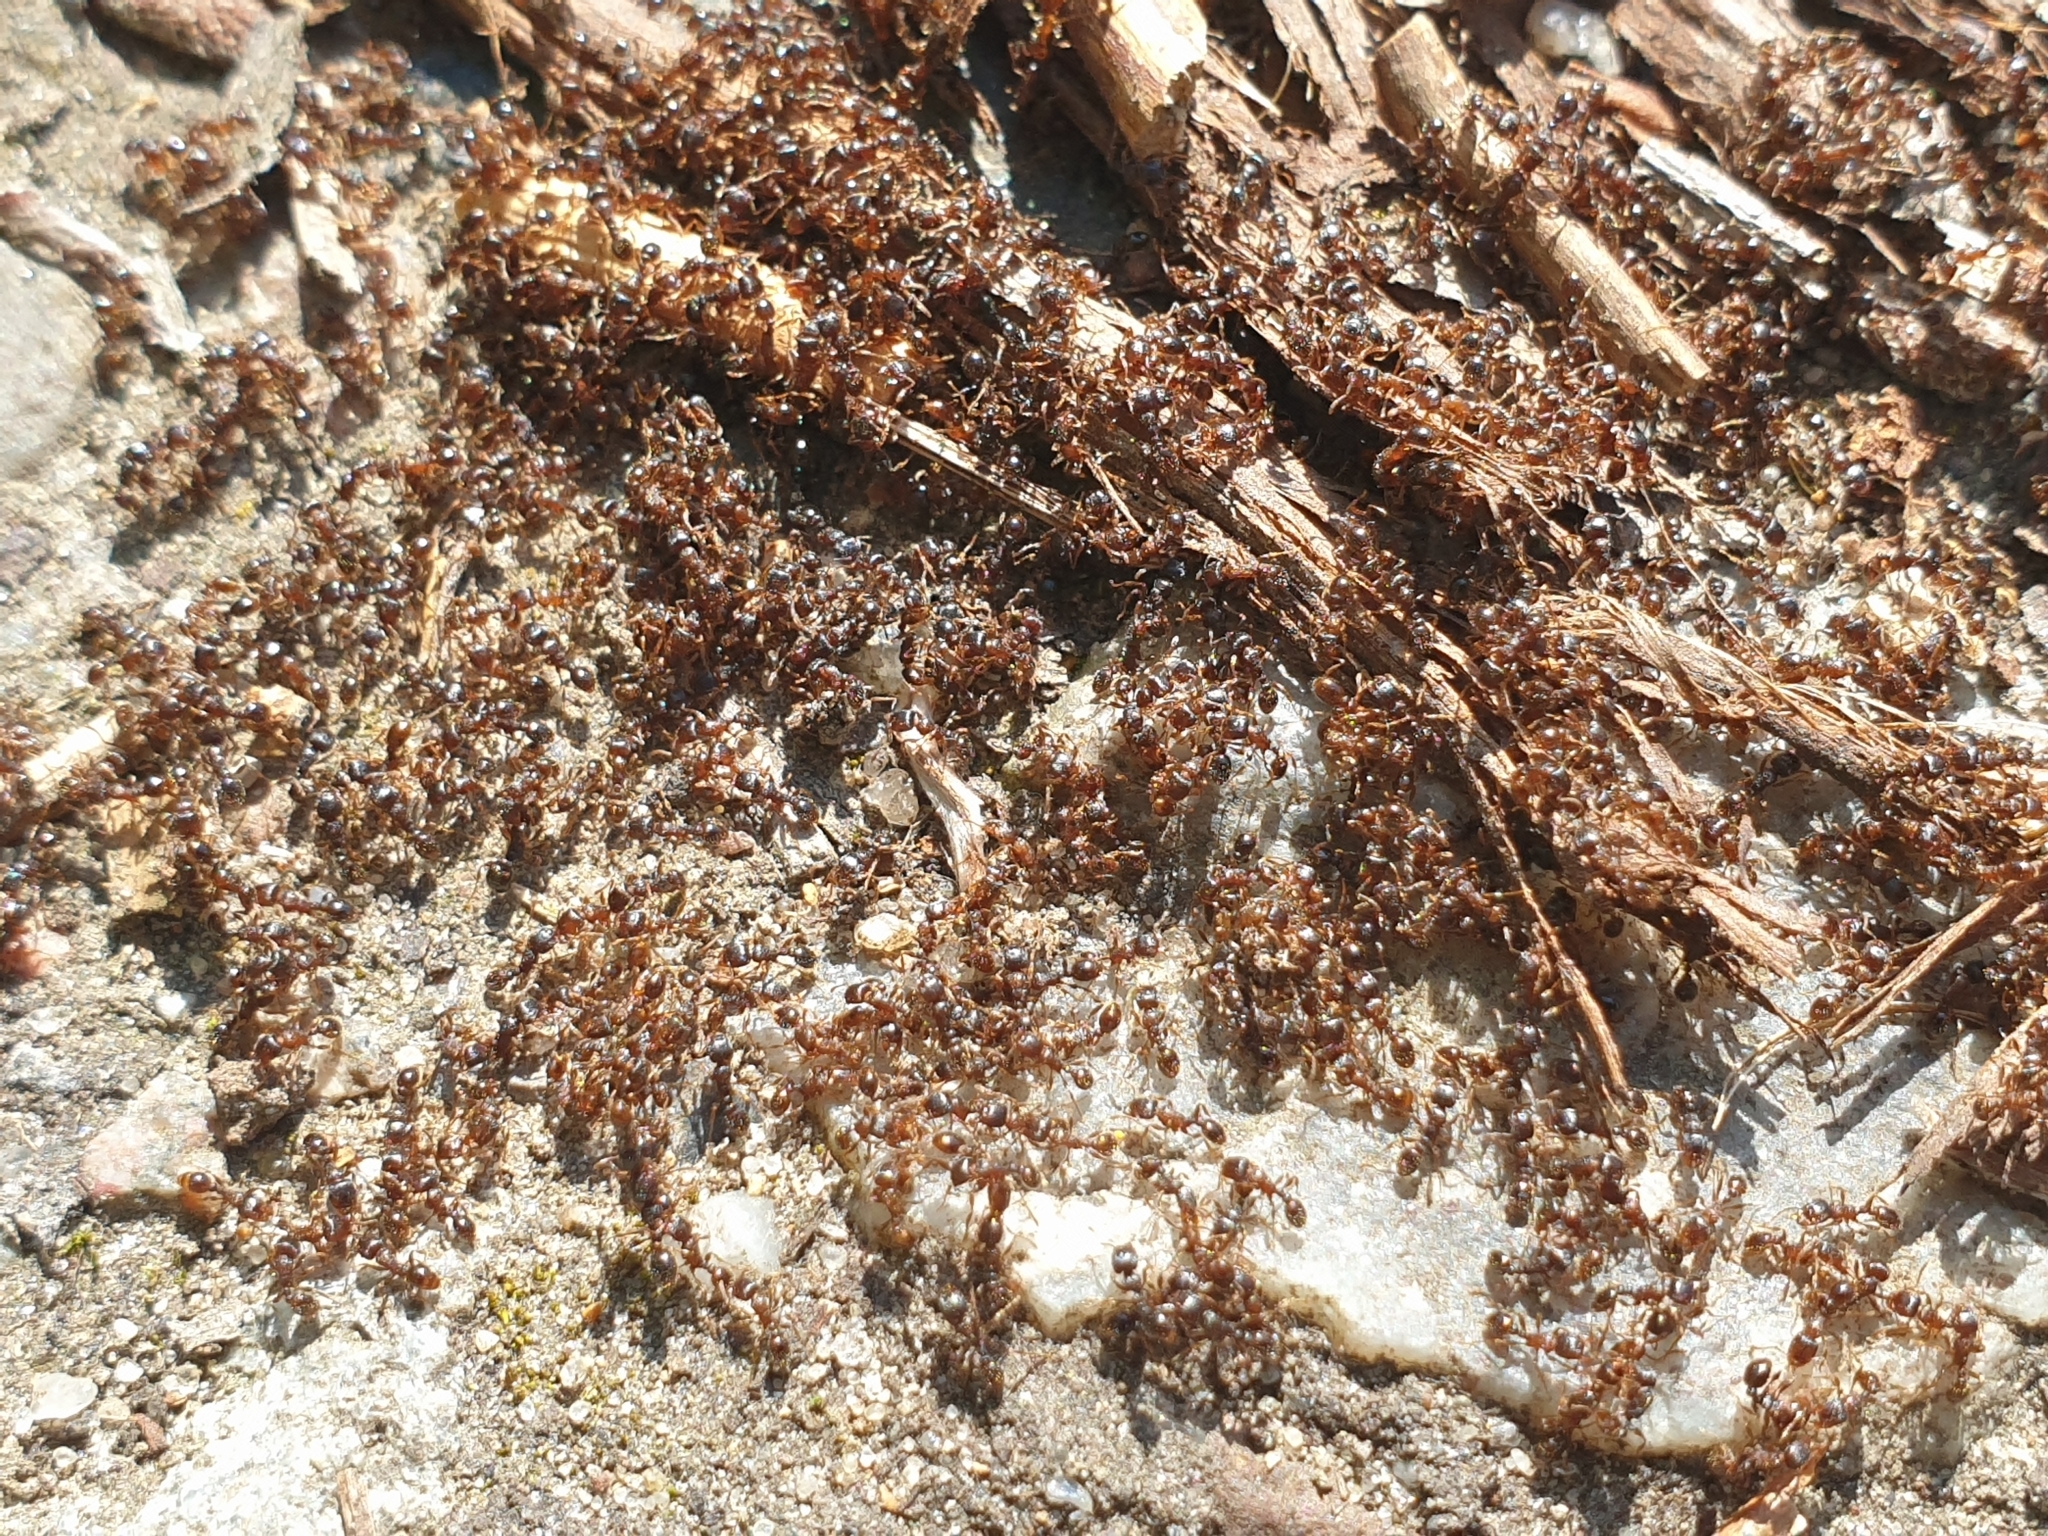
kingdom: Animalia
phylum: Arthropoda
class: Insecta
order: Hymenoptera
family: Formicidae
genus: Tetramorium
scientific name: Tetramorium
